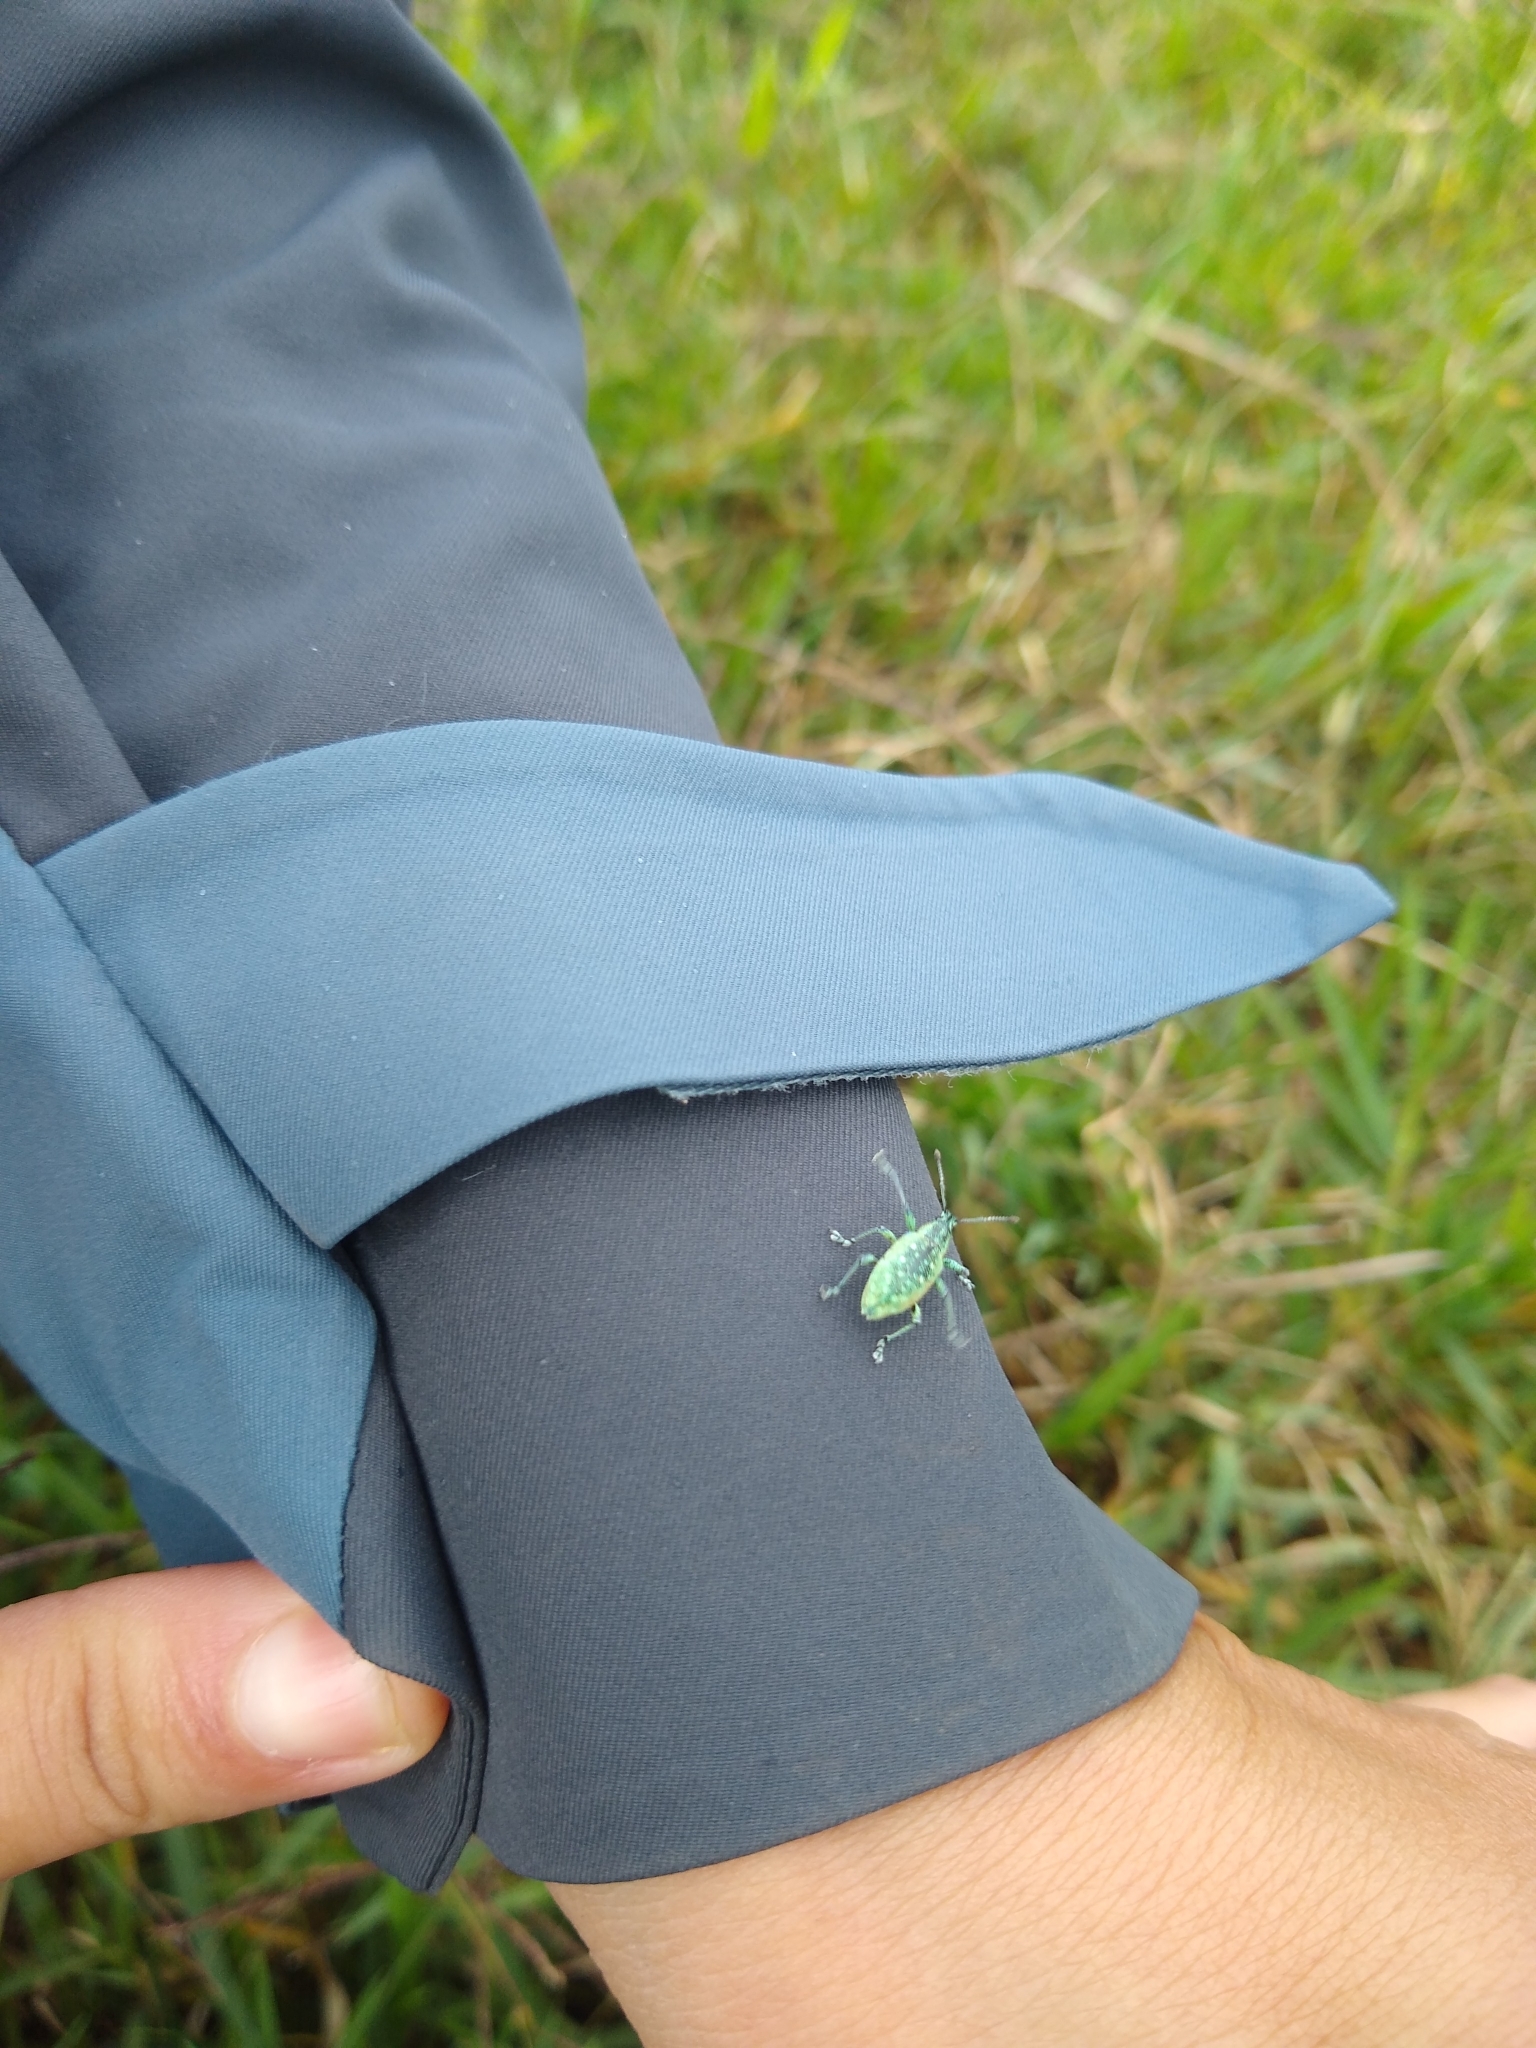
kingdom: Animalia
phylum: Arthropoda
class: Insecta
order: Coleoptera
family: Curculionidae
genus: Exophthalmus
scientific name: Exophthalmus jekelianus
